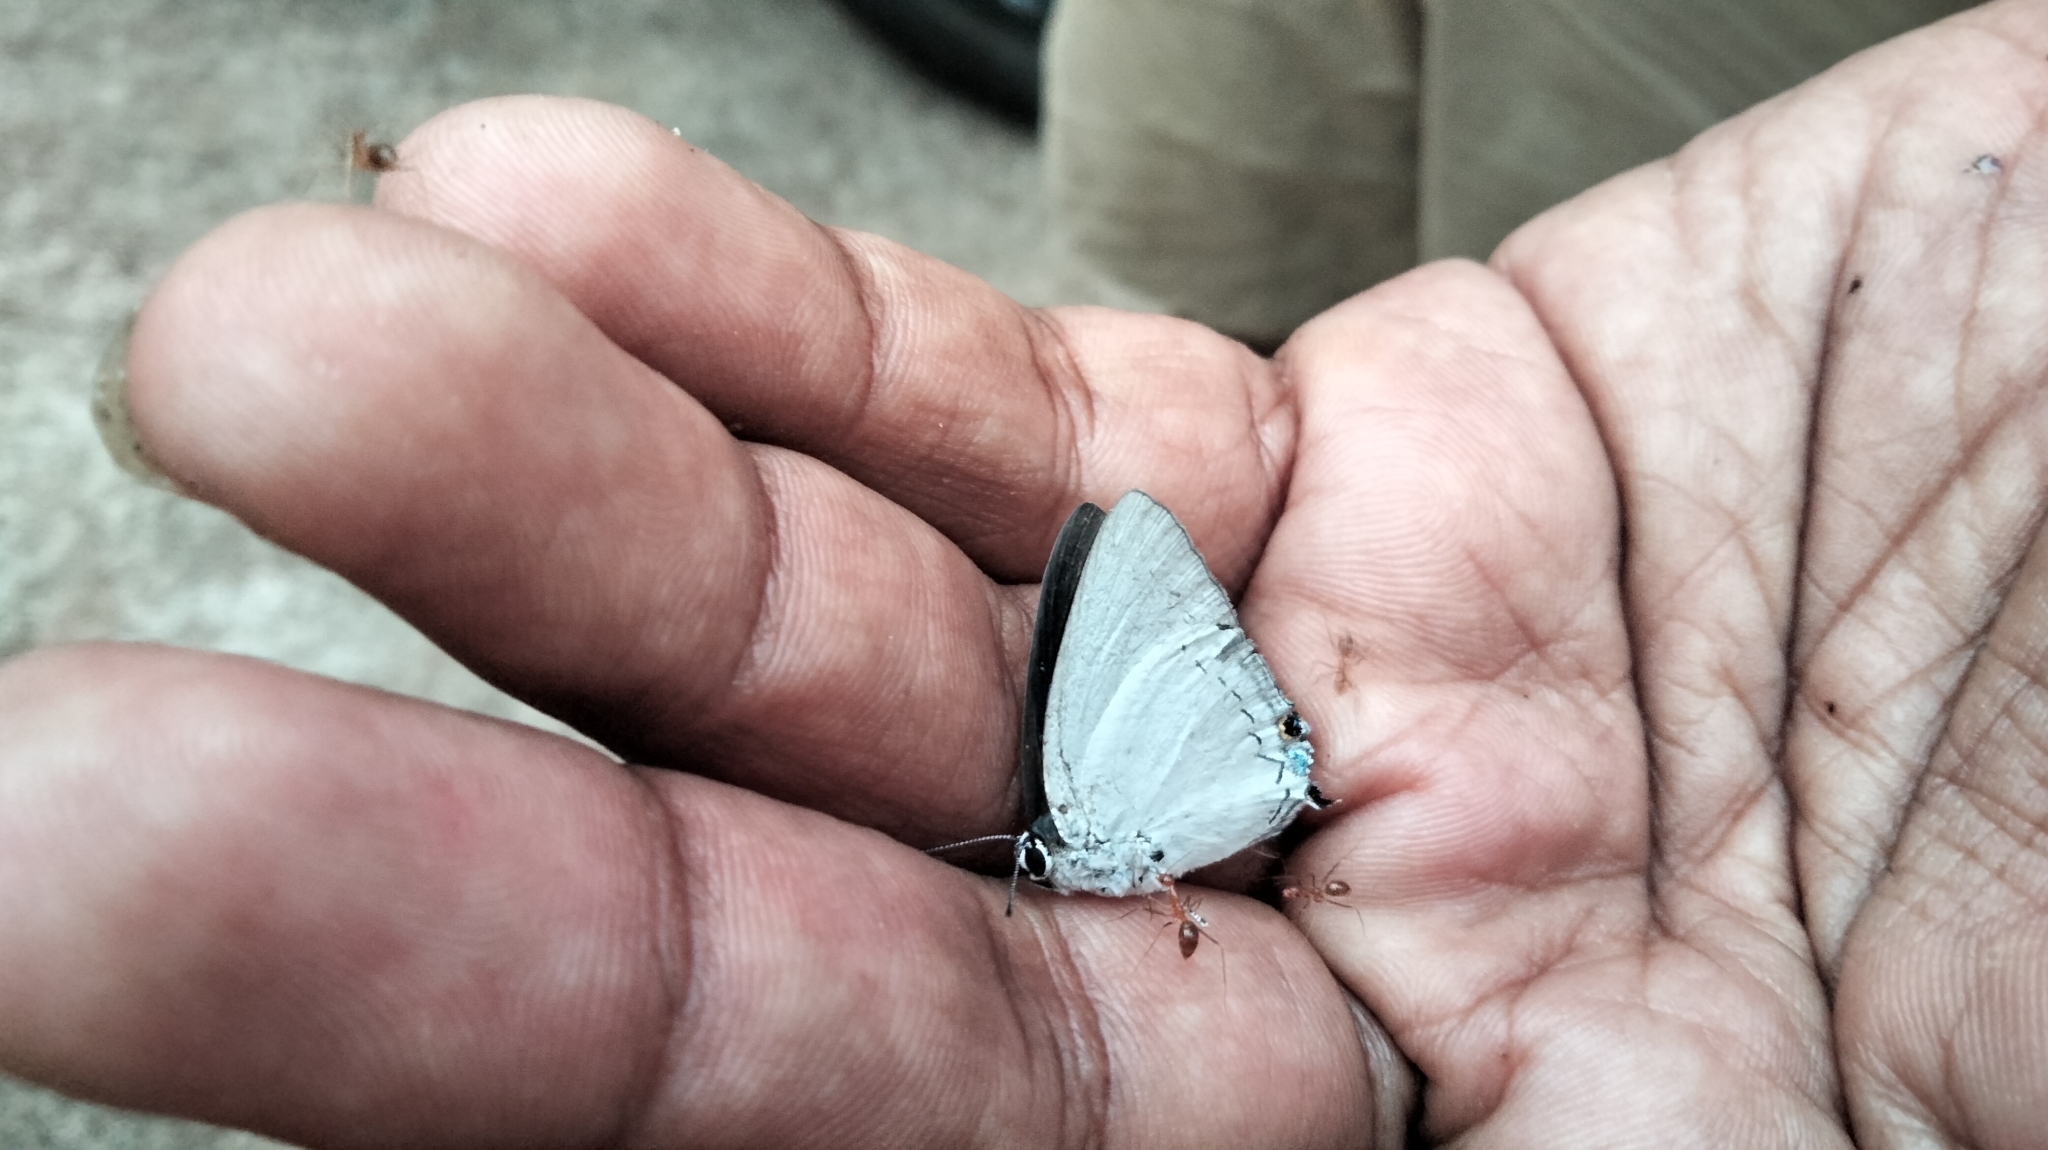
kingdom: Animalia
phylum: Arthropoda
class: Insecta
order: Lepidoptera
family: Lycaenidae
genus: Tajuria
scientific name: Tajuria cippus
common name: Peacock royal
